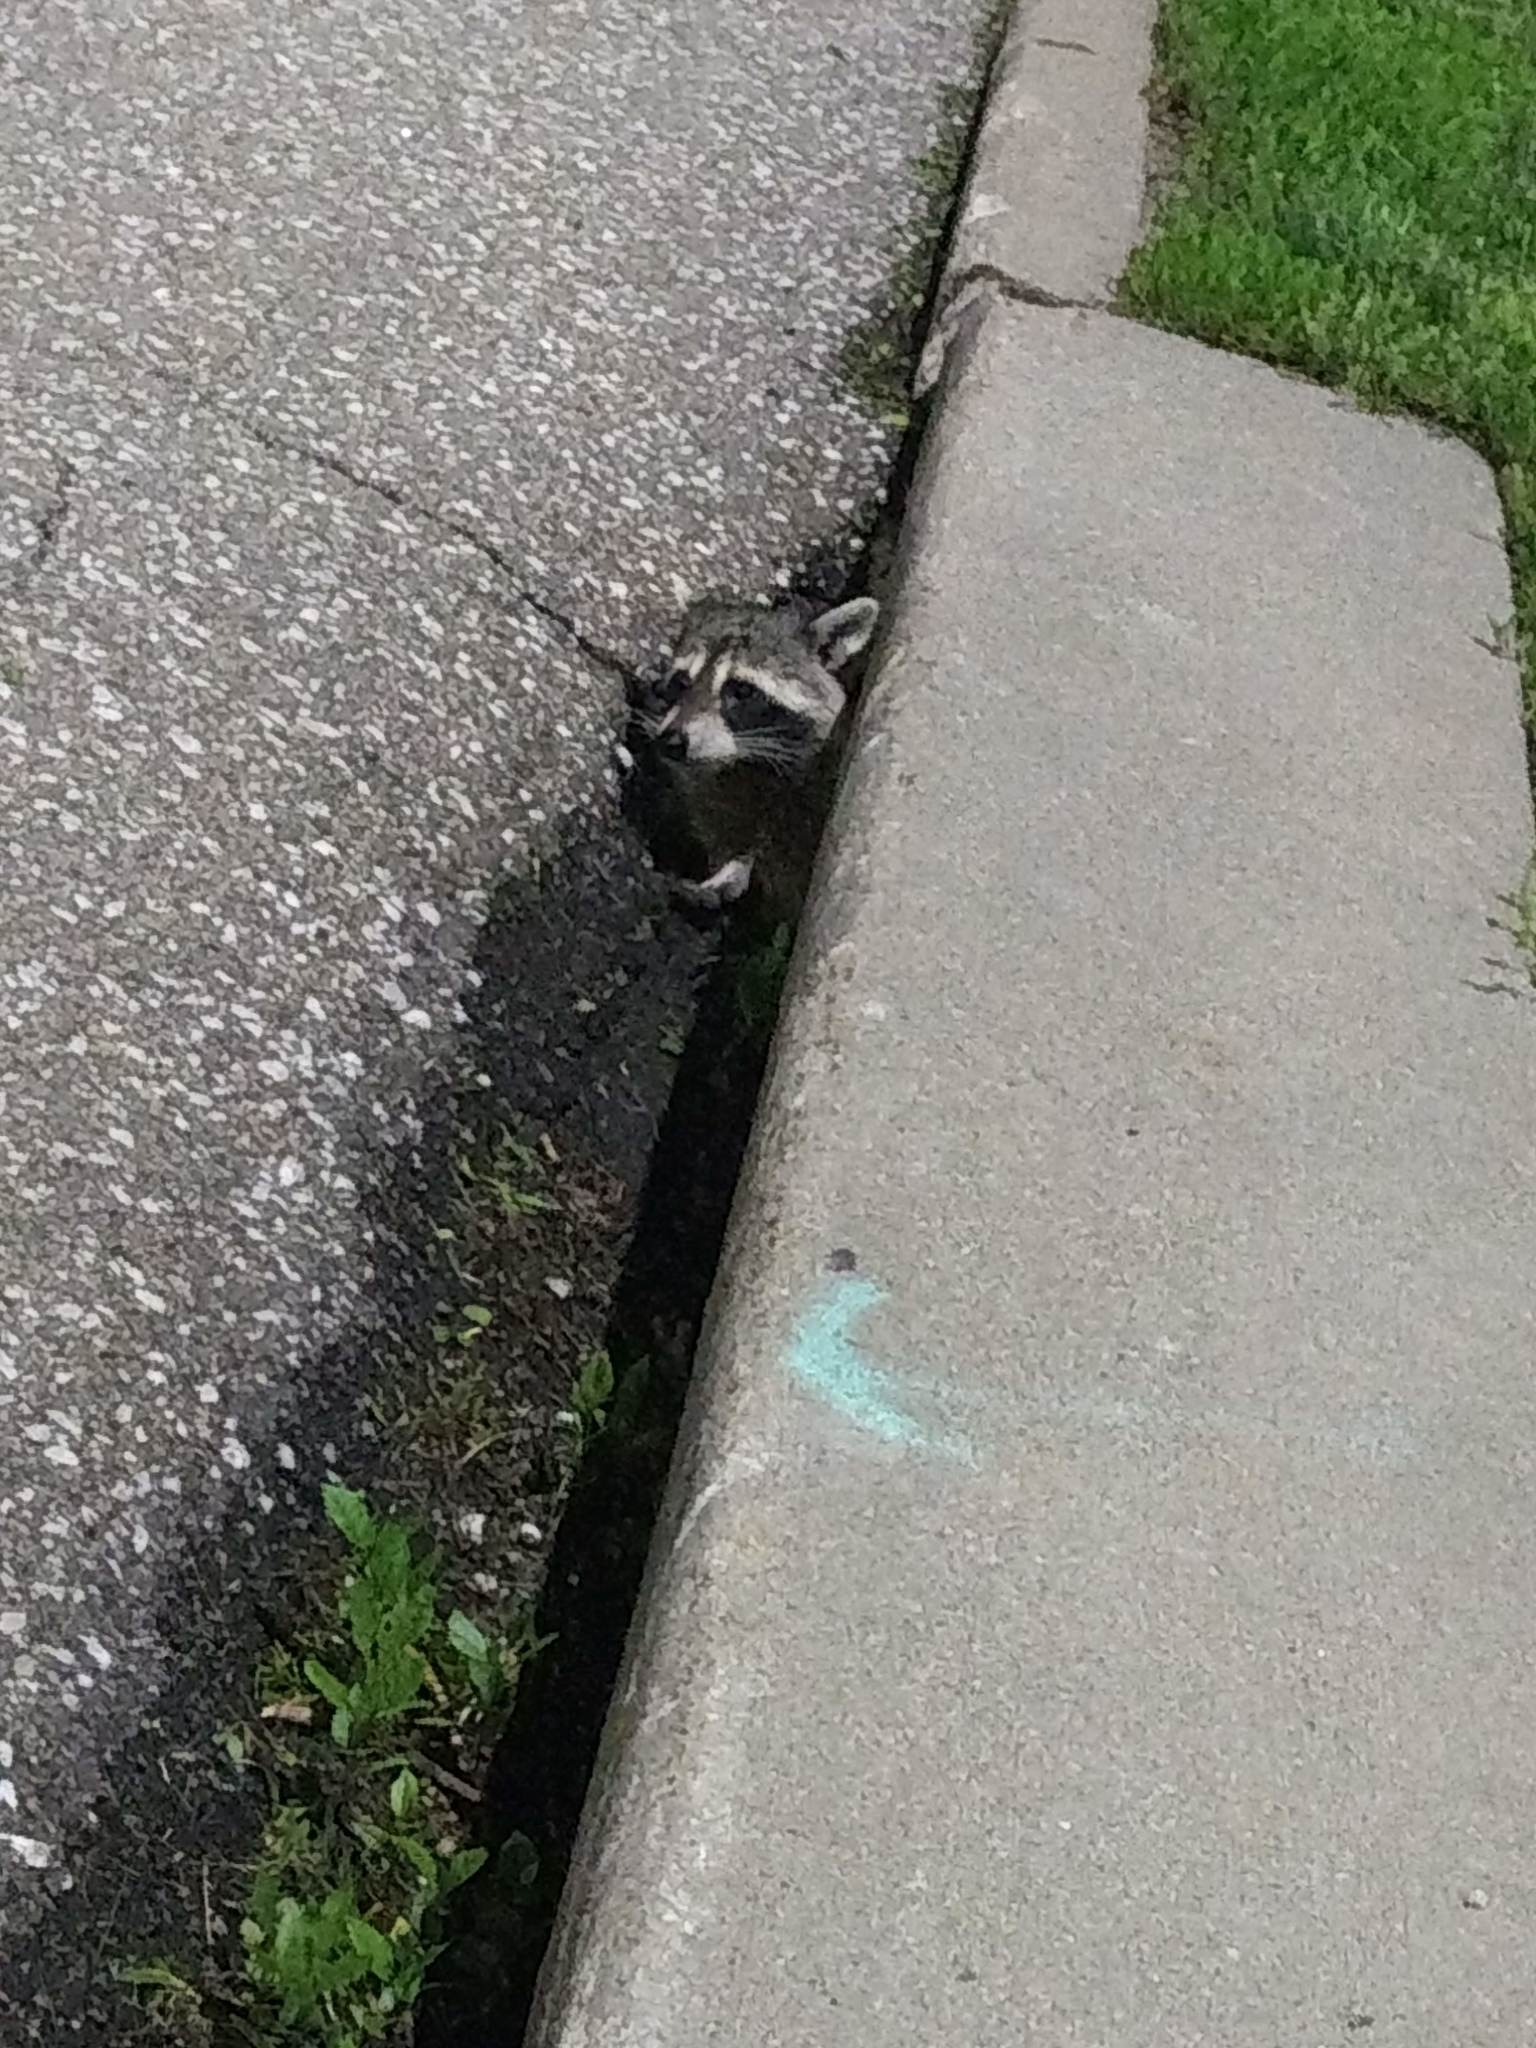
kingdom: Animalia
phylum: Chordata
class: Mammalia
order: Carnivora
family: Procyonidae
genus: Procyon
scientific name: Procyon lotor
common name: Raccoon
